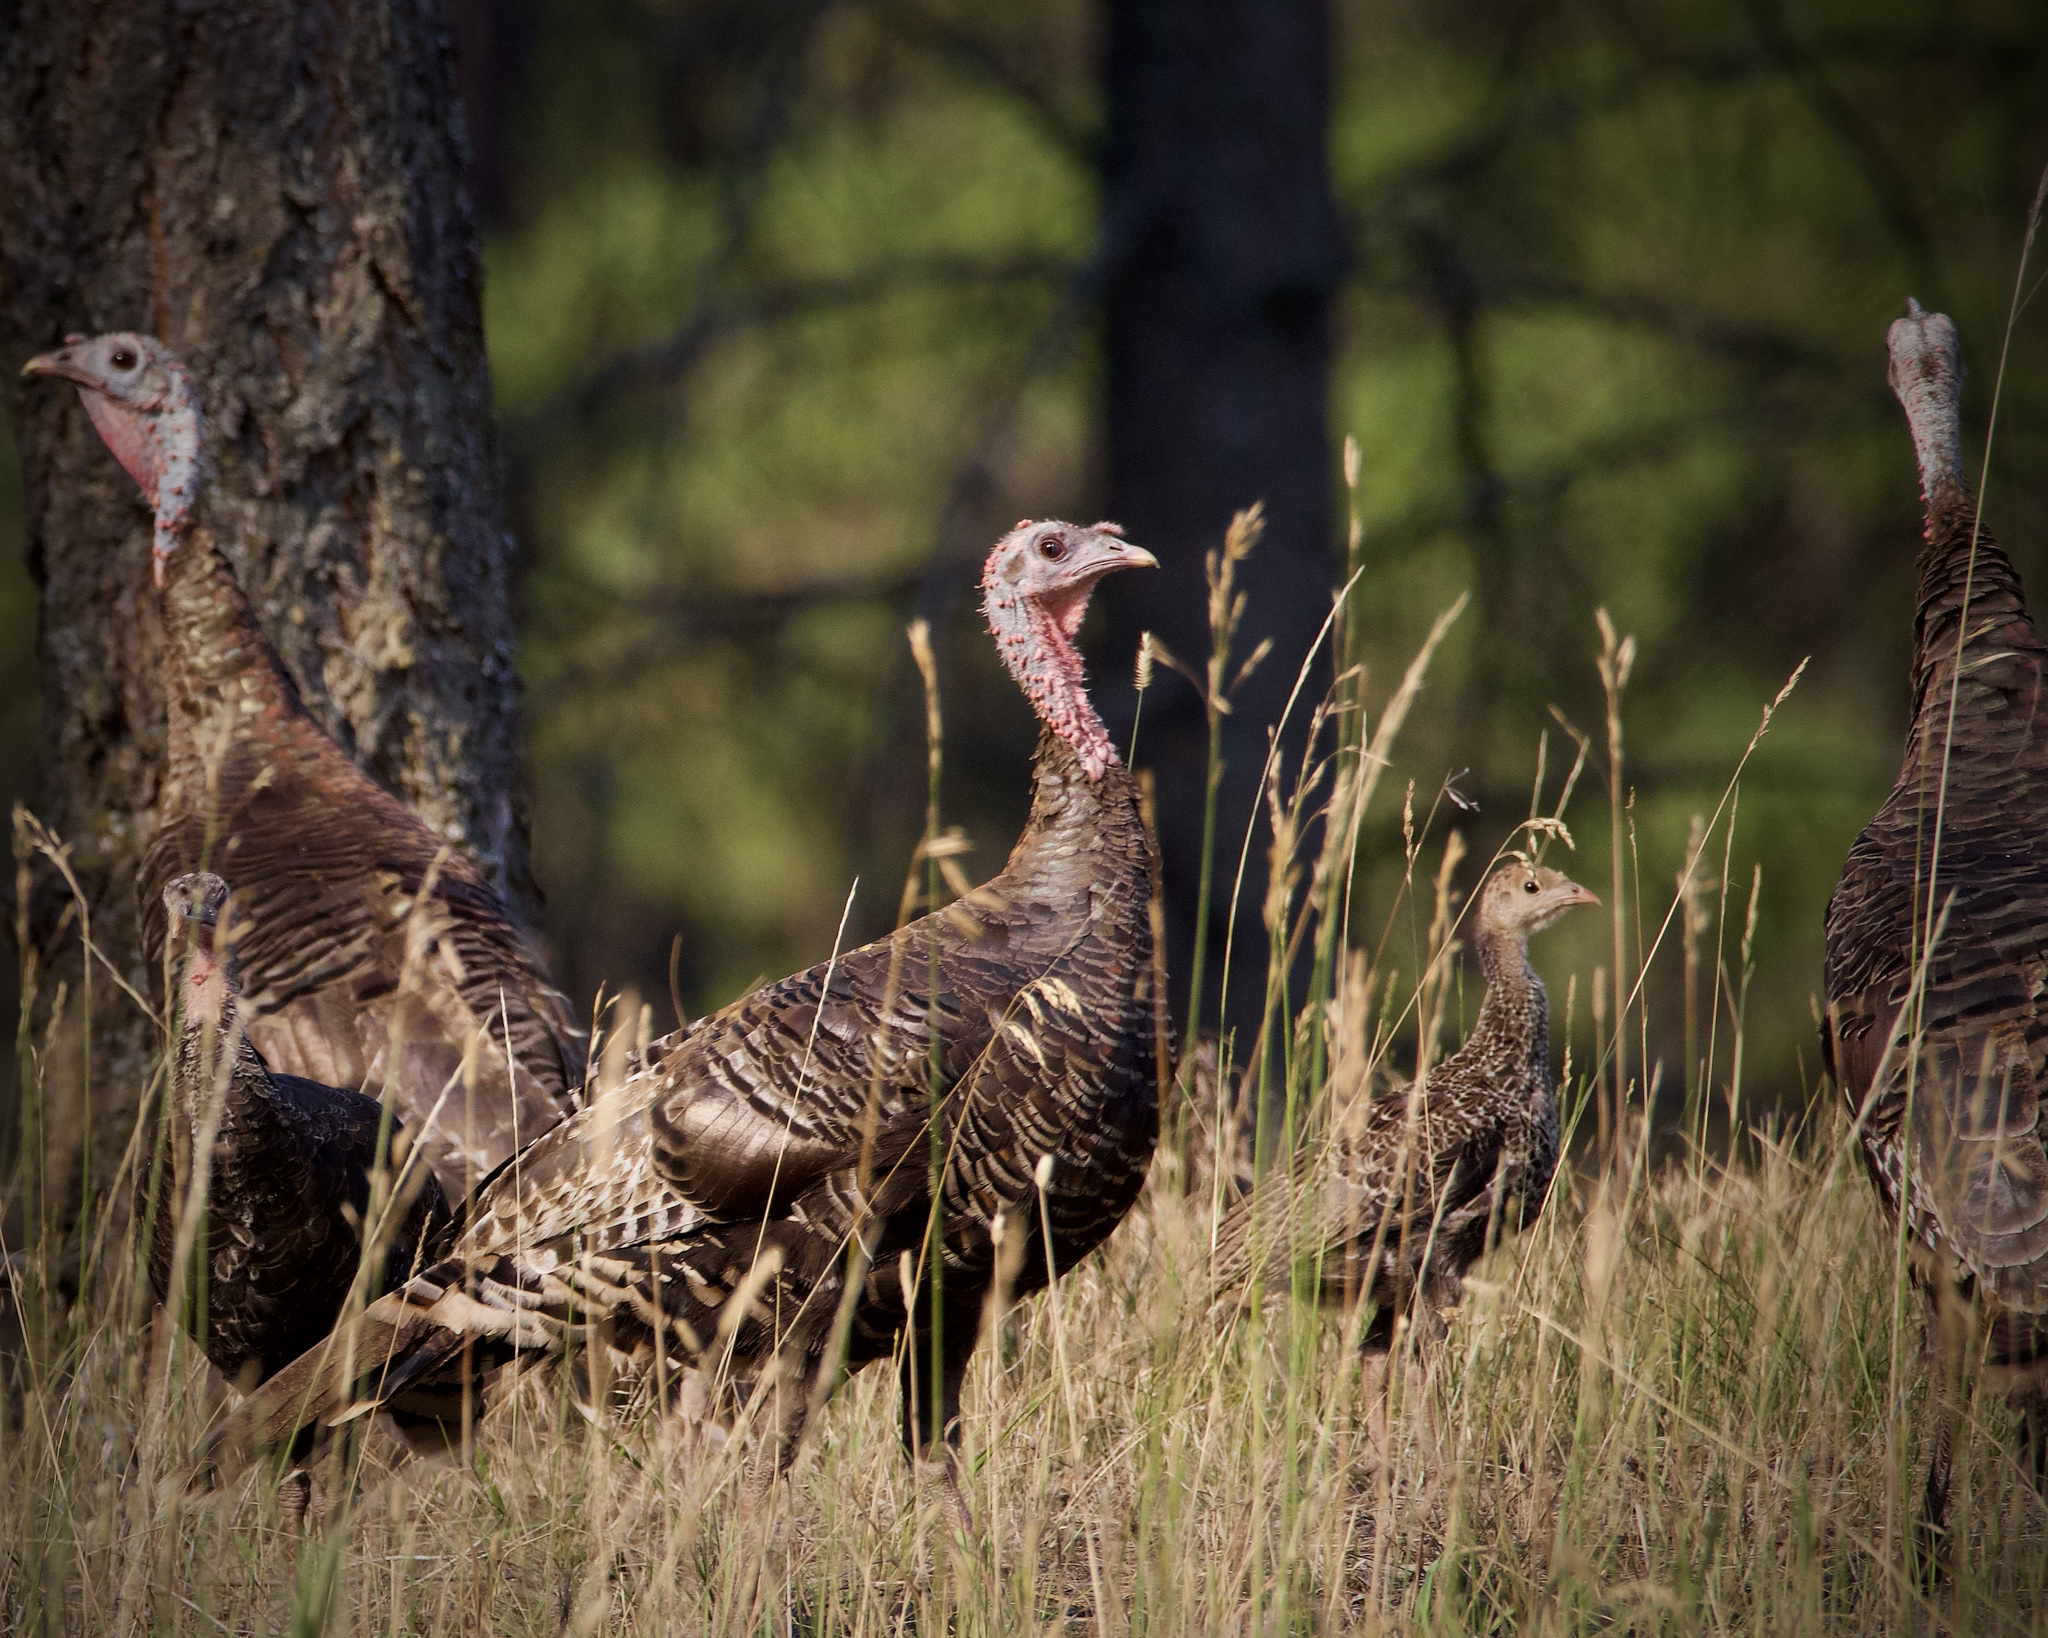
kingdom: Animalia
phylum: Chordata
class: Aves
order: Galliformes
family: Phasianidae
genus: Meleagris
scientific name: Meleagris gallopavo
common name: Wild turkey
